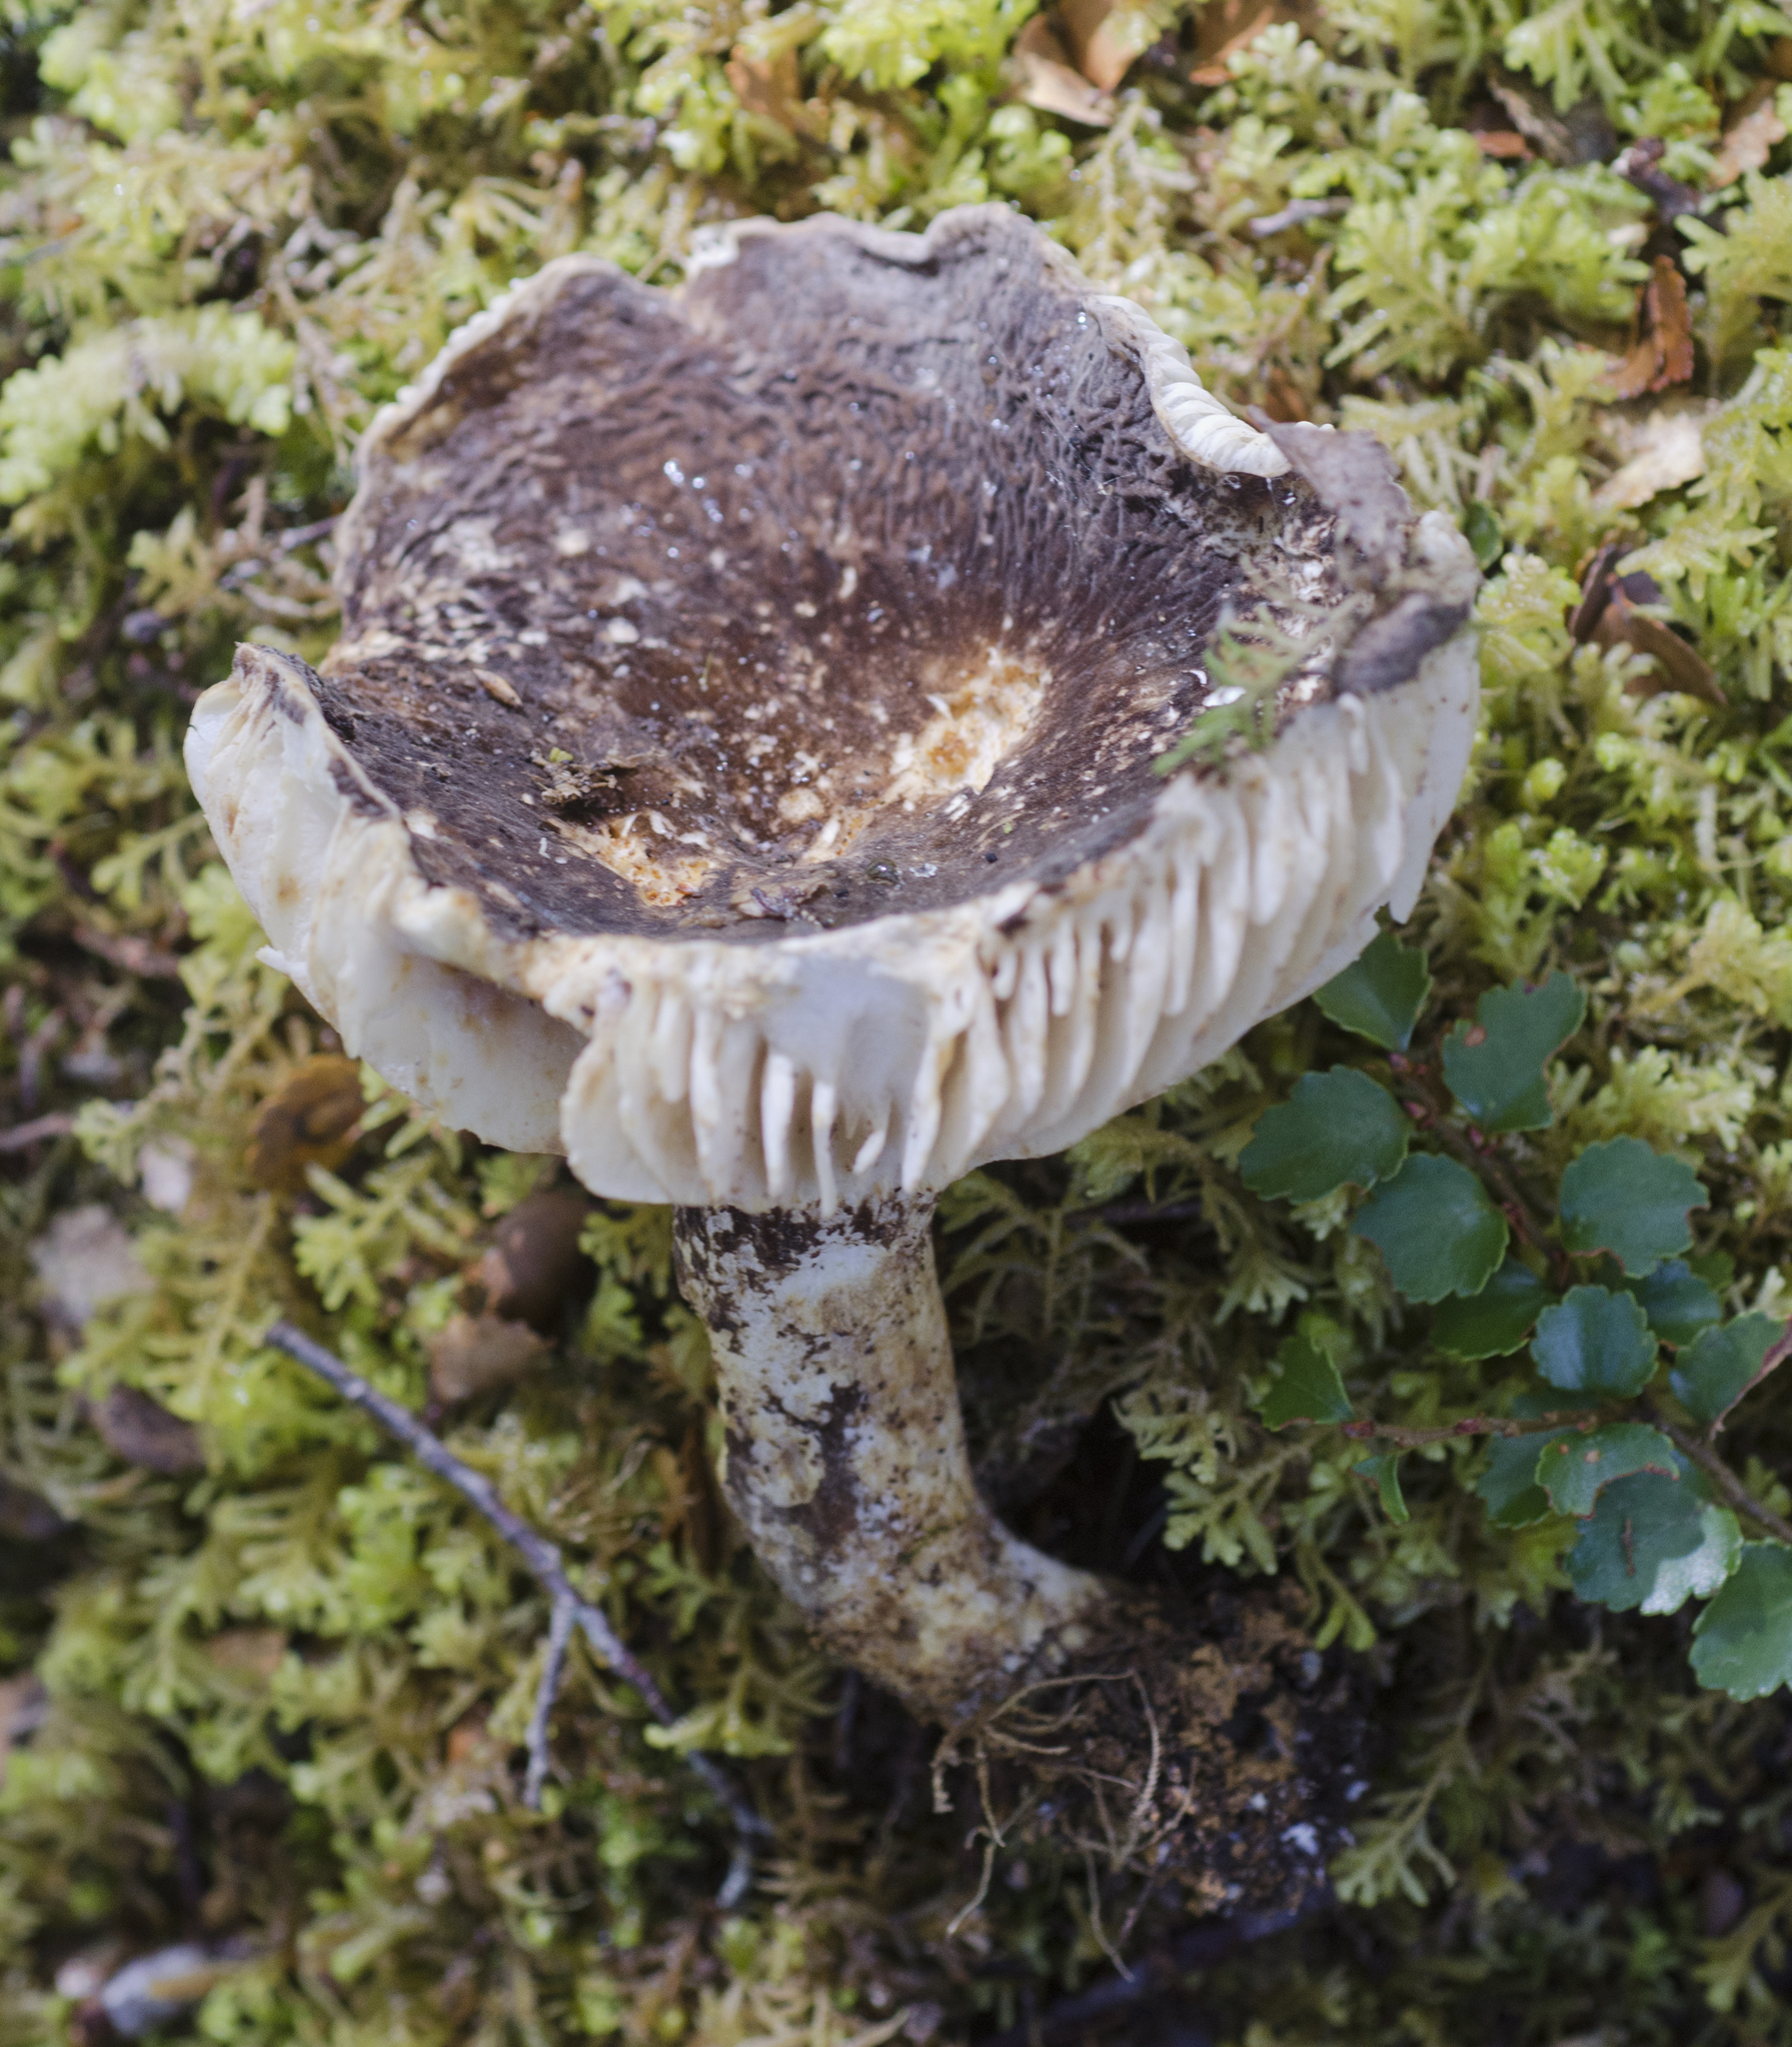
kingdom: Fungi
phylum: Basidiomycota
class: Agaricomycetes
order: Russulales
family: Russulaceae
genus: Lactifluus
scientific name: Lactifluus sepiaceus
